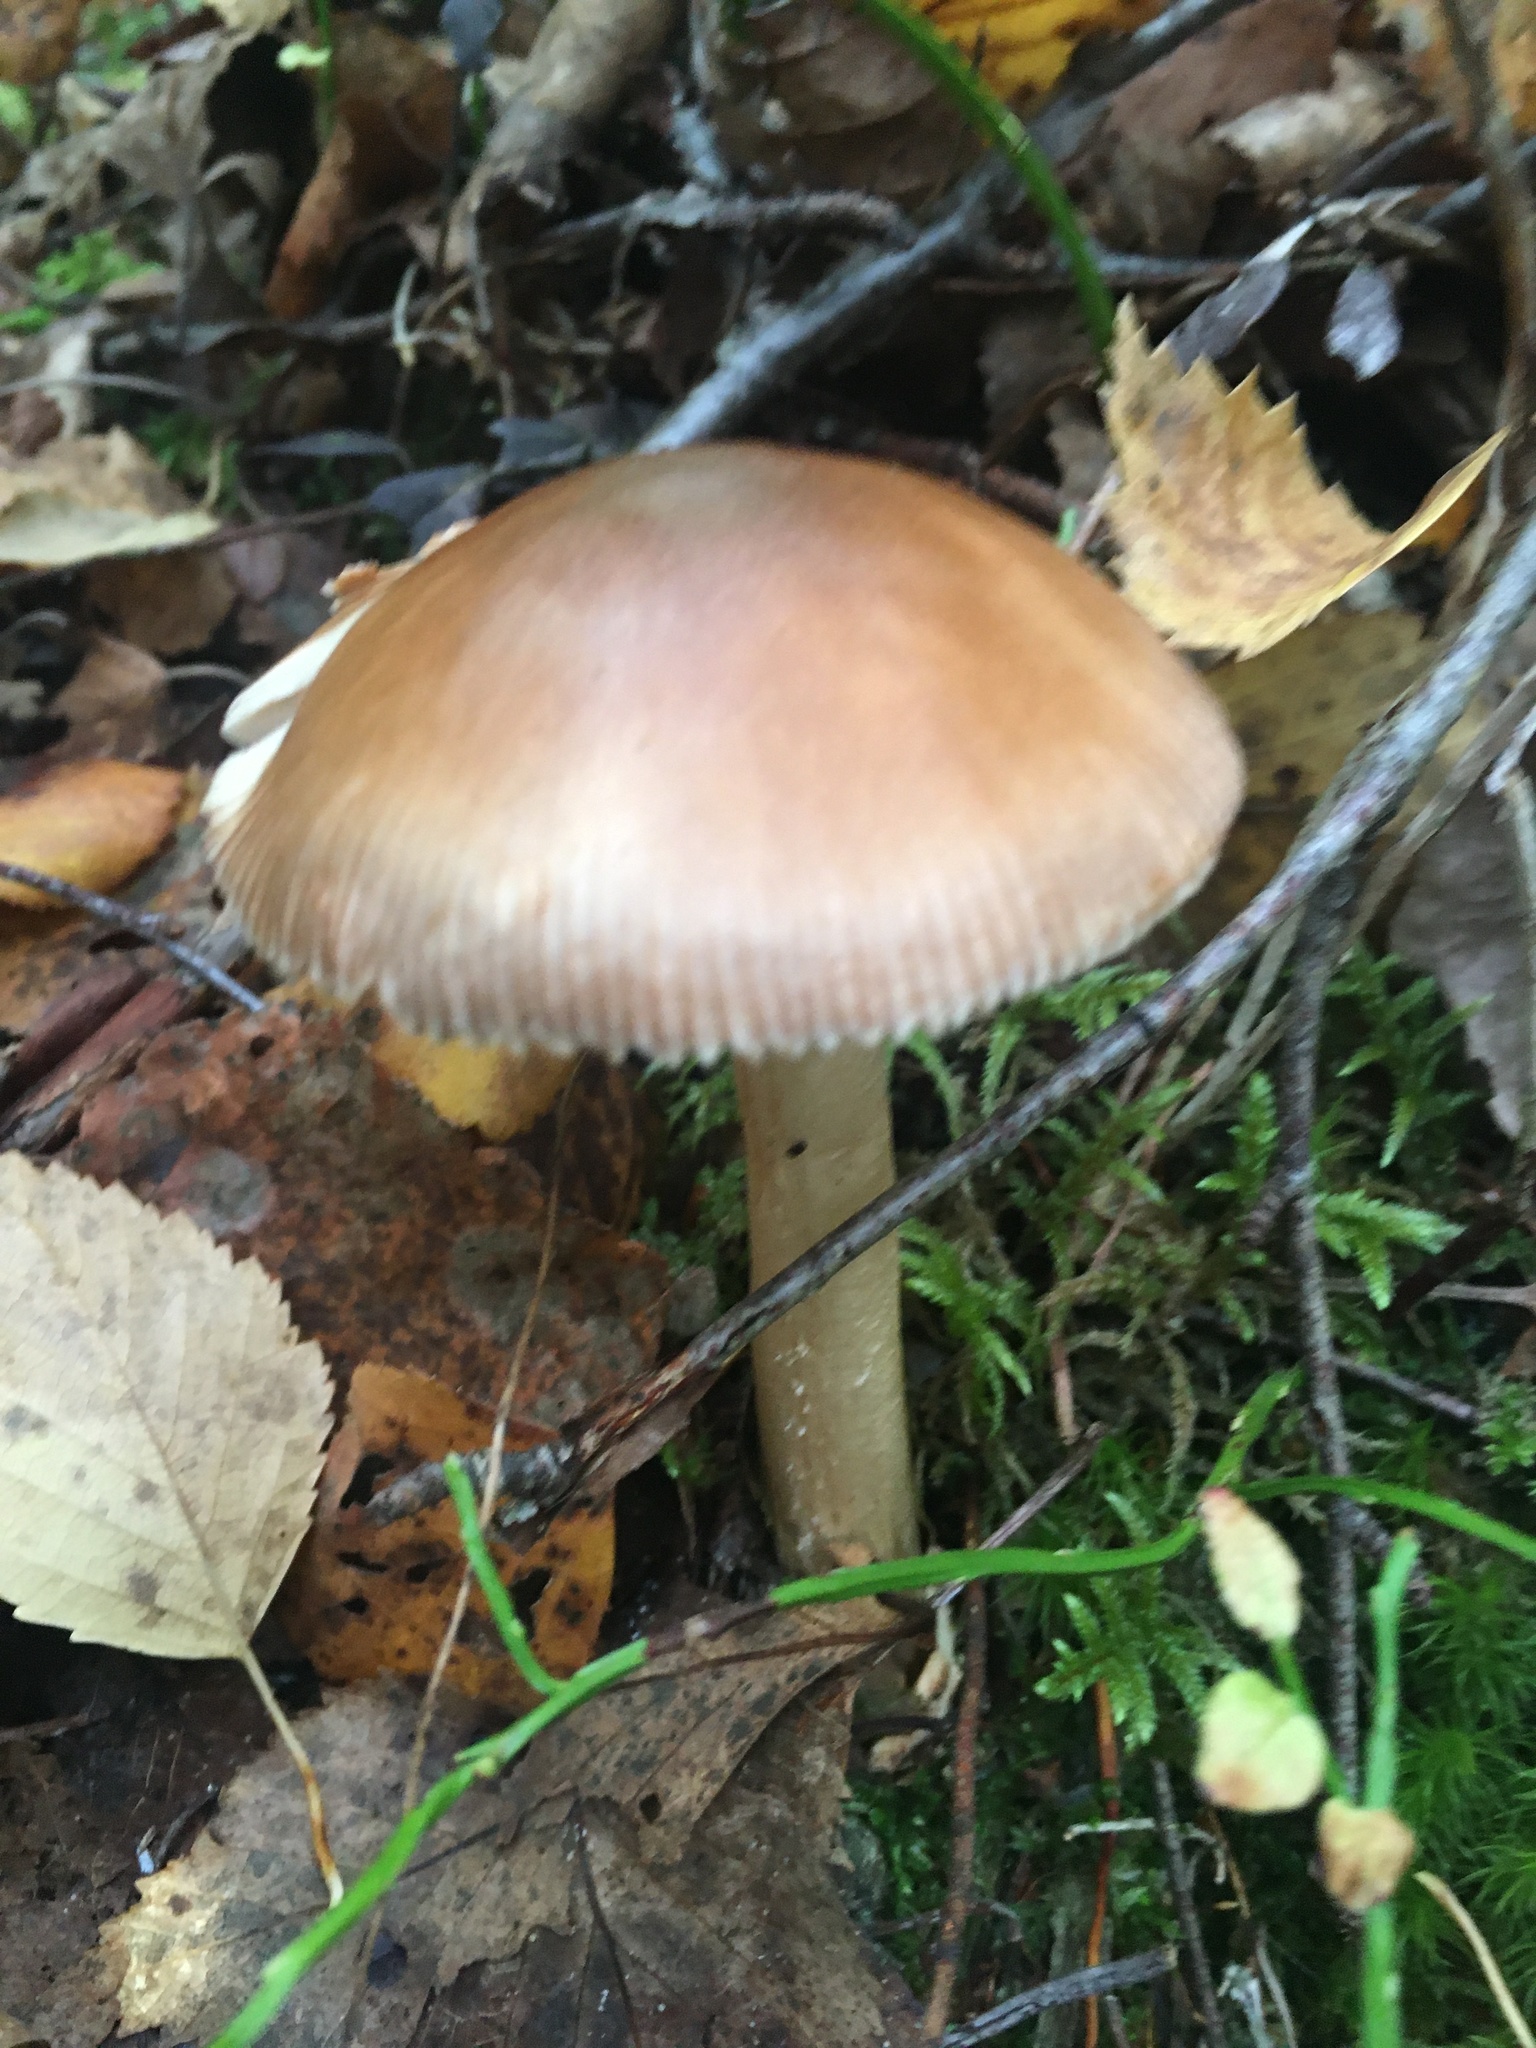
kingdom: Fungi
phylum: Basidiomycota
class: Agaricomycetes
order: Agaricales
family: Amanitaceae
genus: Amanita
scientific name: Amanita fulva
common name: Tawny grisette
